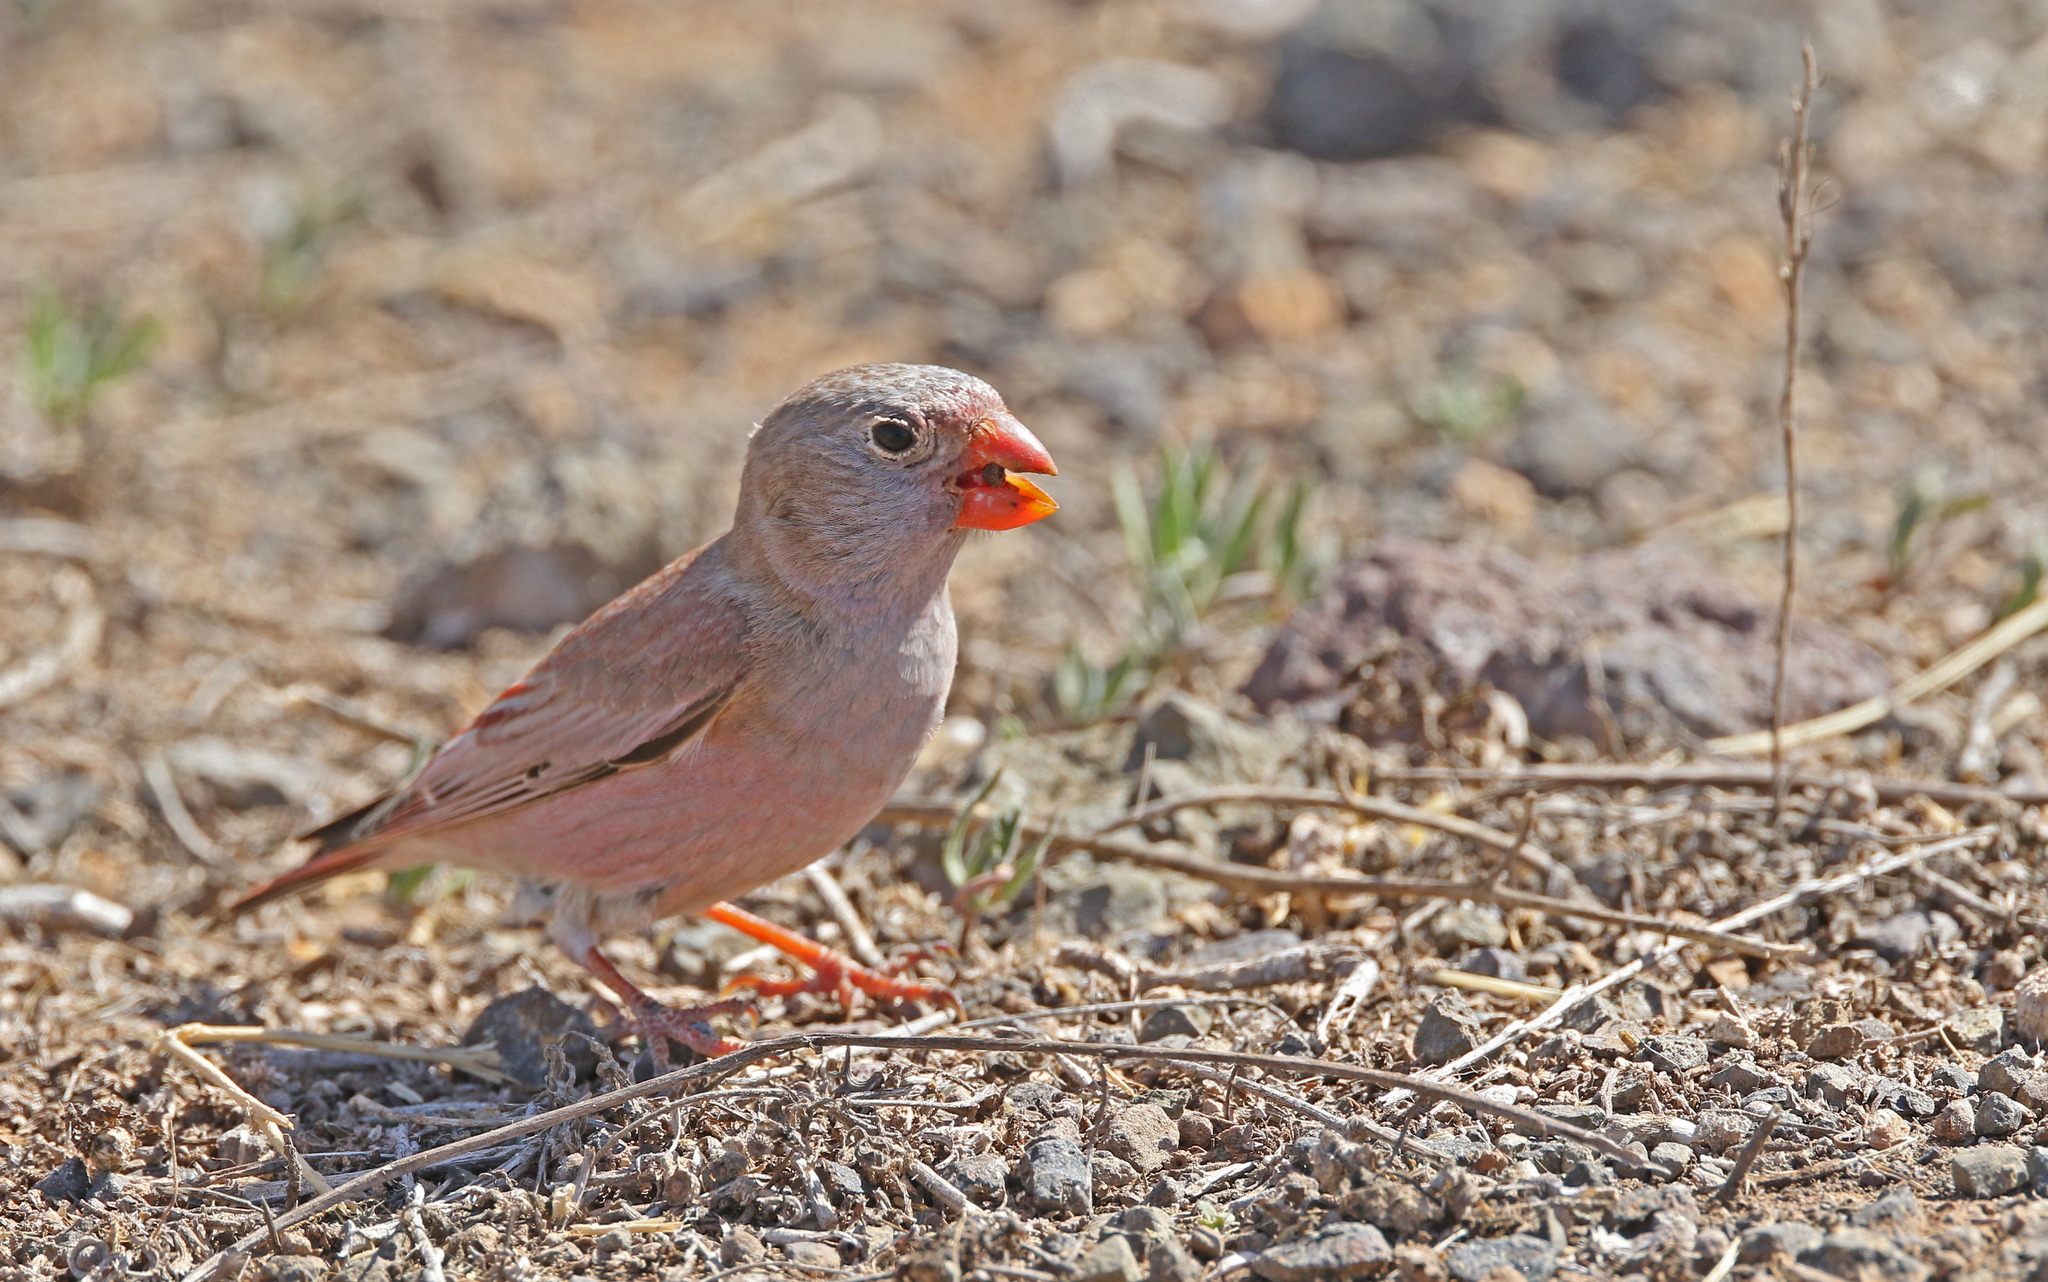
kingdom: Animalia
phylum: Chordata
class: Aves
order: Passeriformes
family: Fringillidae
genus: Bucanetes
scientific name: Bucanetes githagineus
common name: Trumpeter finch
